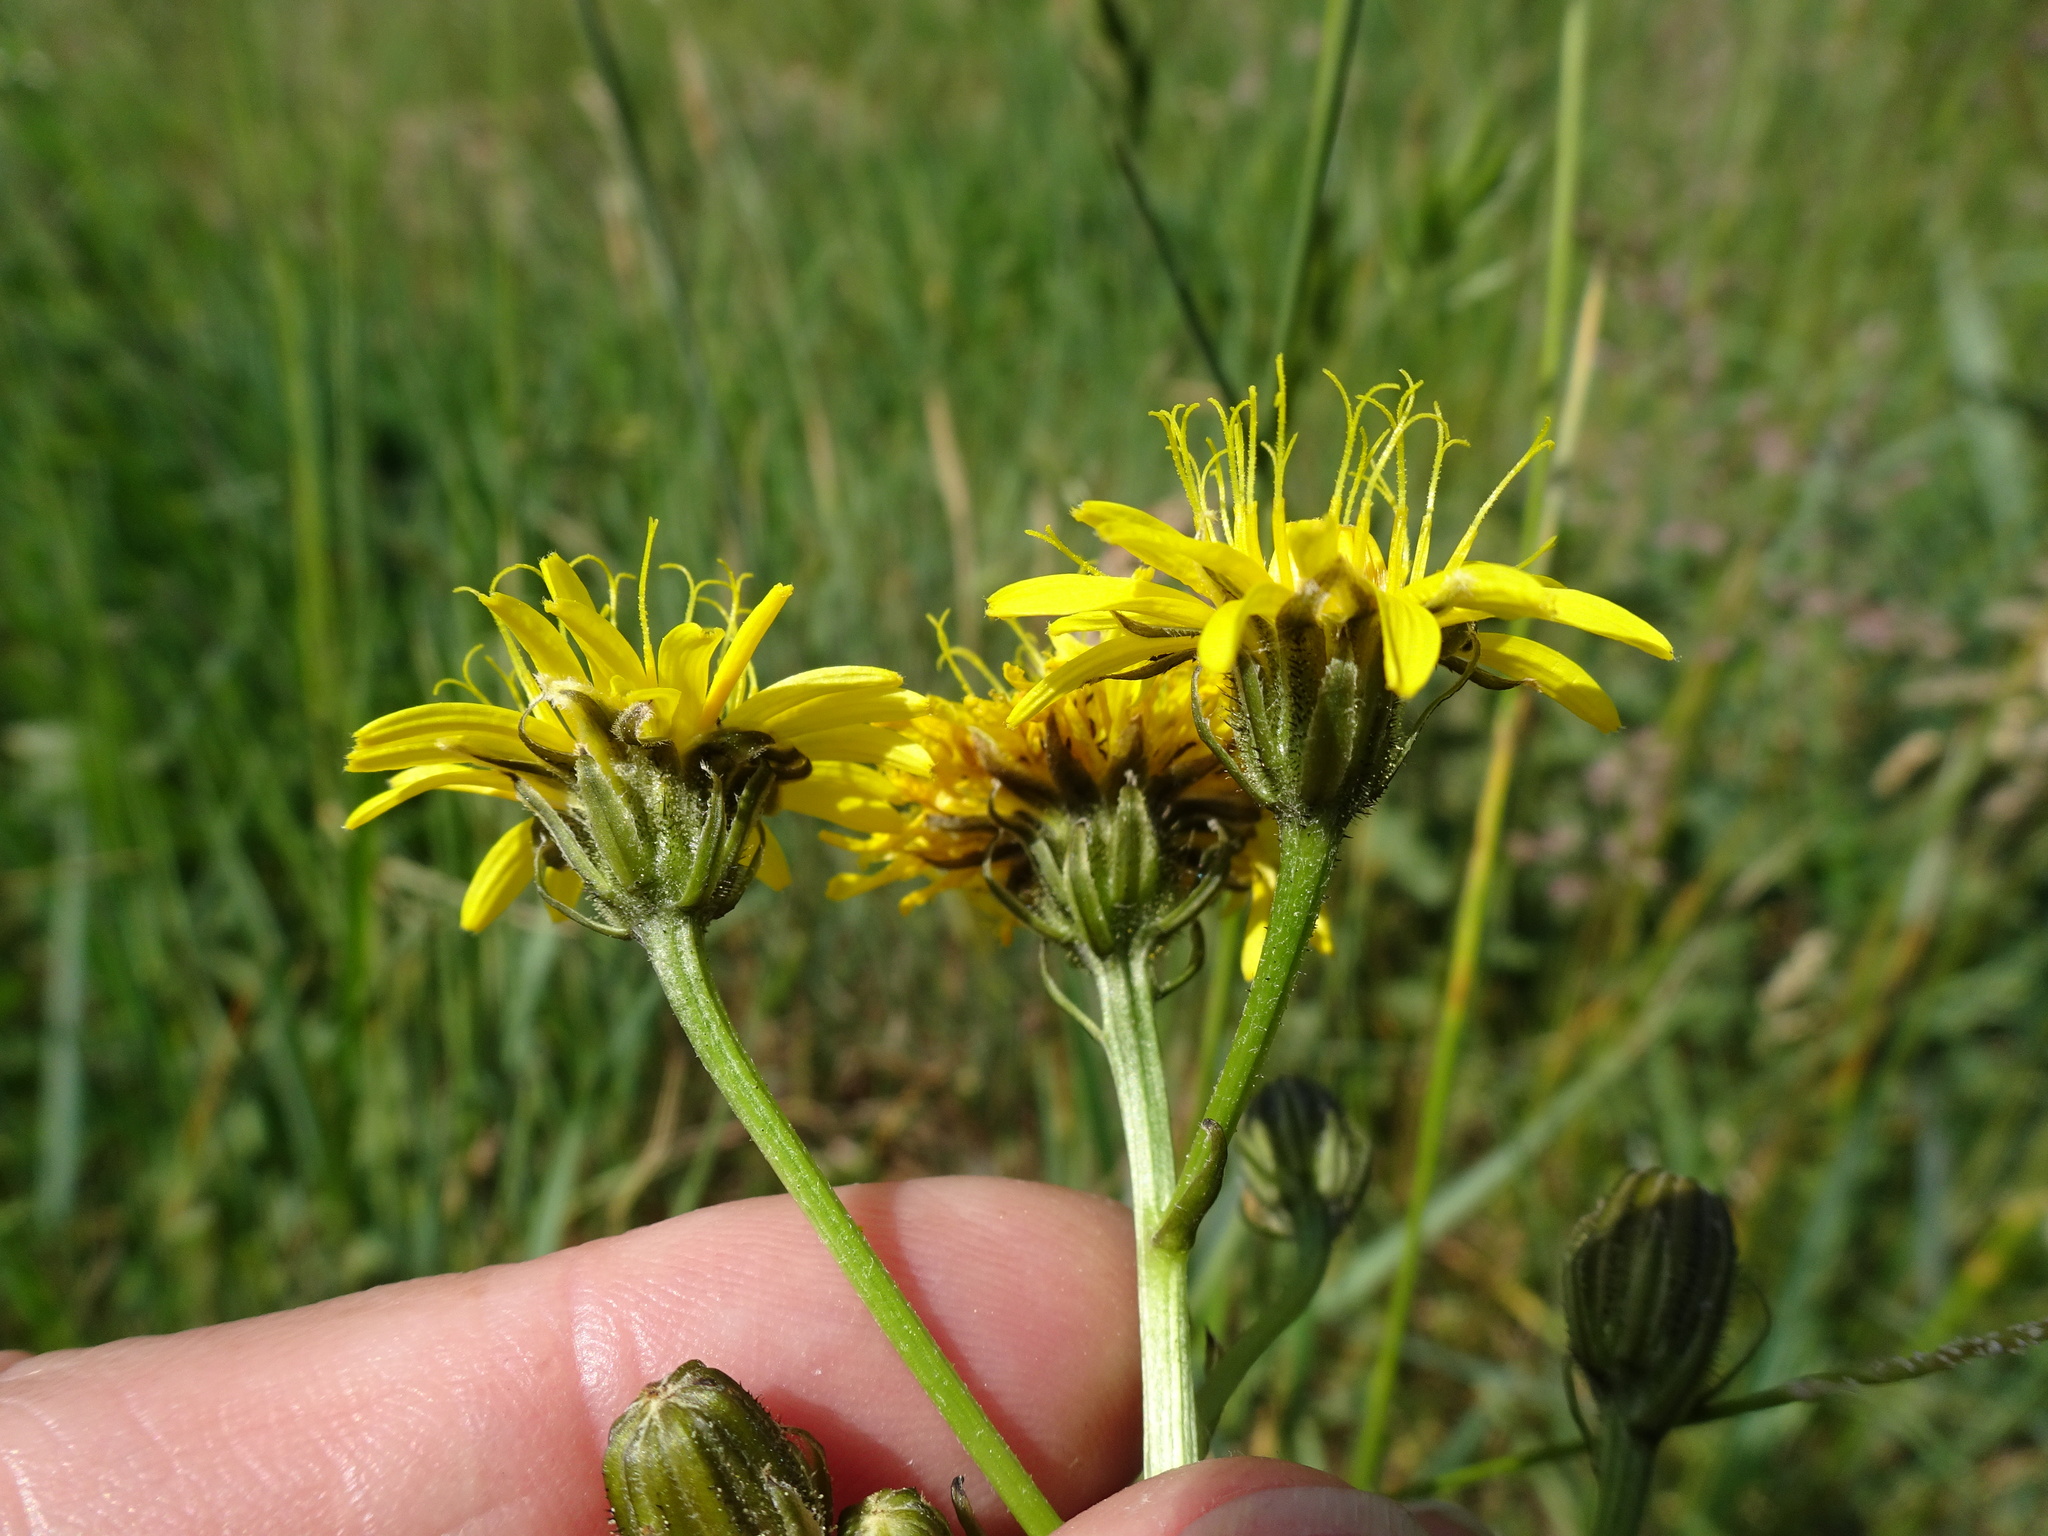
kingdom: Plantae
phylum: Tracheophyta
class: Magnoliopsida
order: Asterales
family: Asteraceae
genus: Crepis
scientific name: Crepis biennis
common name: Rough hawk's-beard
